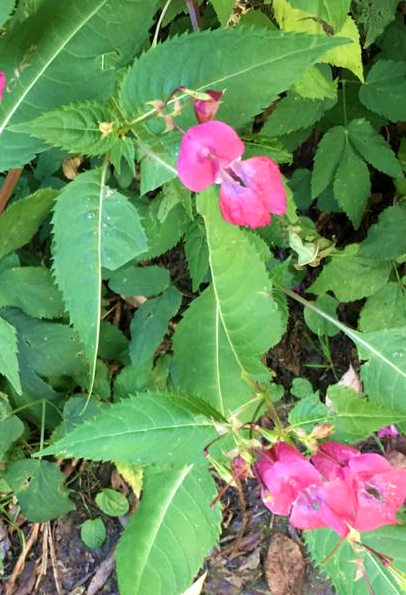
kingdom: Plantae
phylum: Tracheophyta
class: Magnoliopsida
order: Ericales
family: Balsaminaceae
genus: Impatiens
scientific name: Impatiens glandulifera
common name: Himalayan balsam
